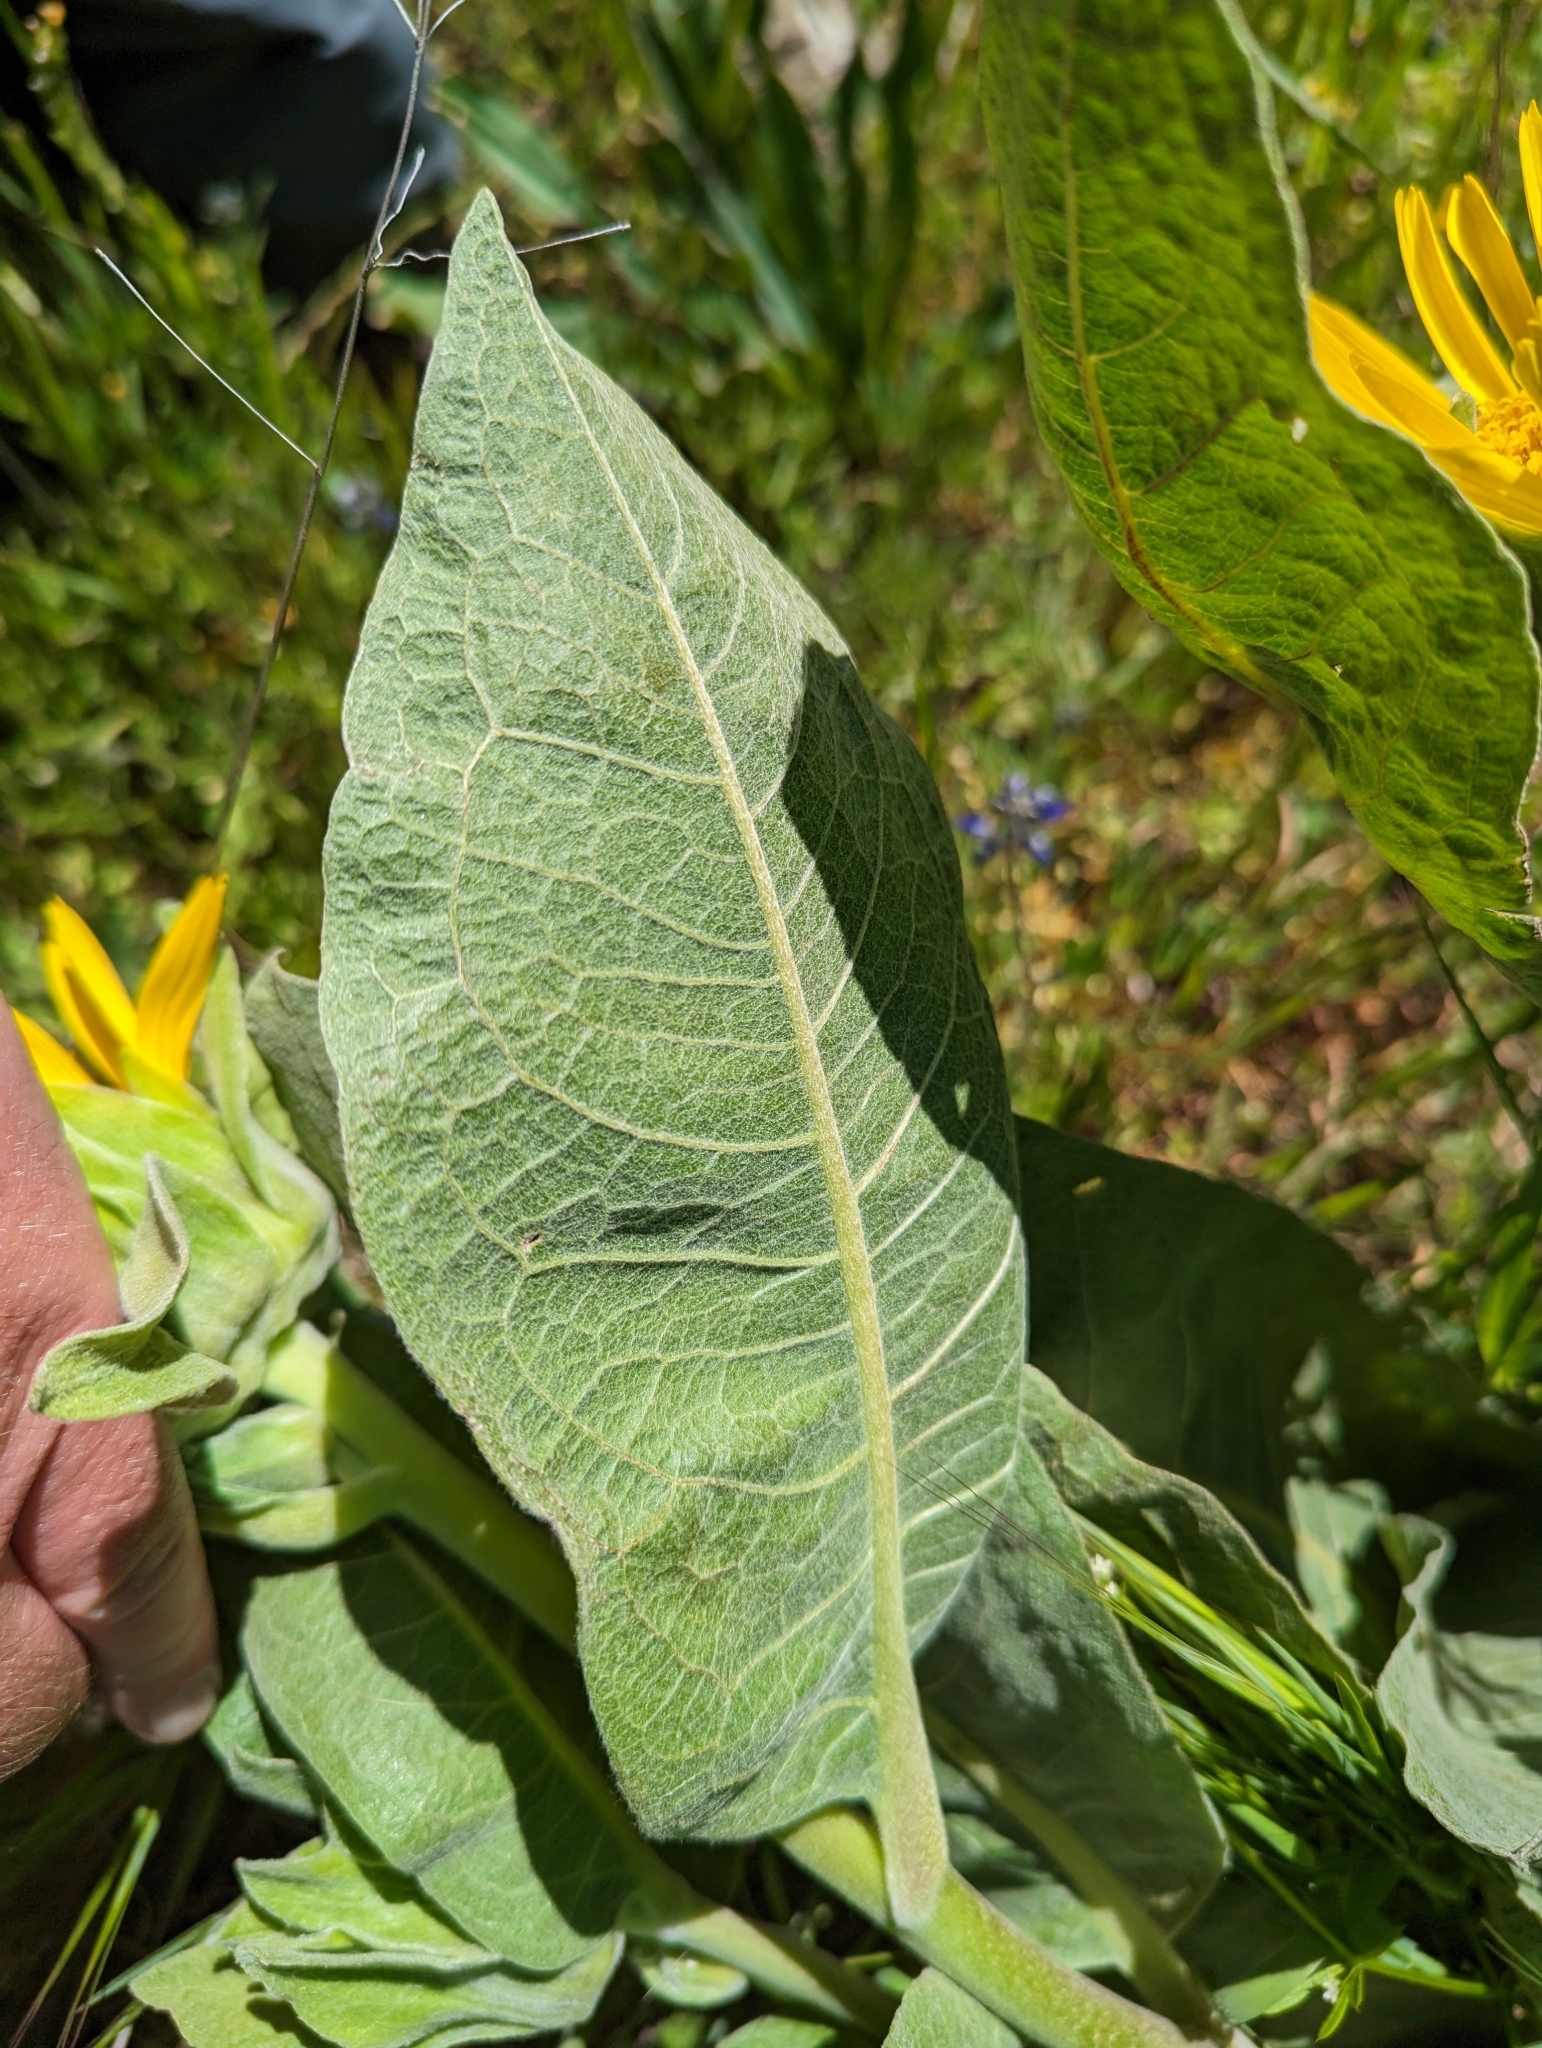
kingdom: Plantae
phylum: Tracheophyta
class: Magnoliopsida
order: Asterales
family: Asteraceae
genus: Wyethia
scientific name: Wyethia helenioides
